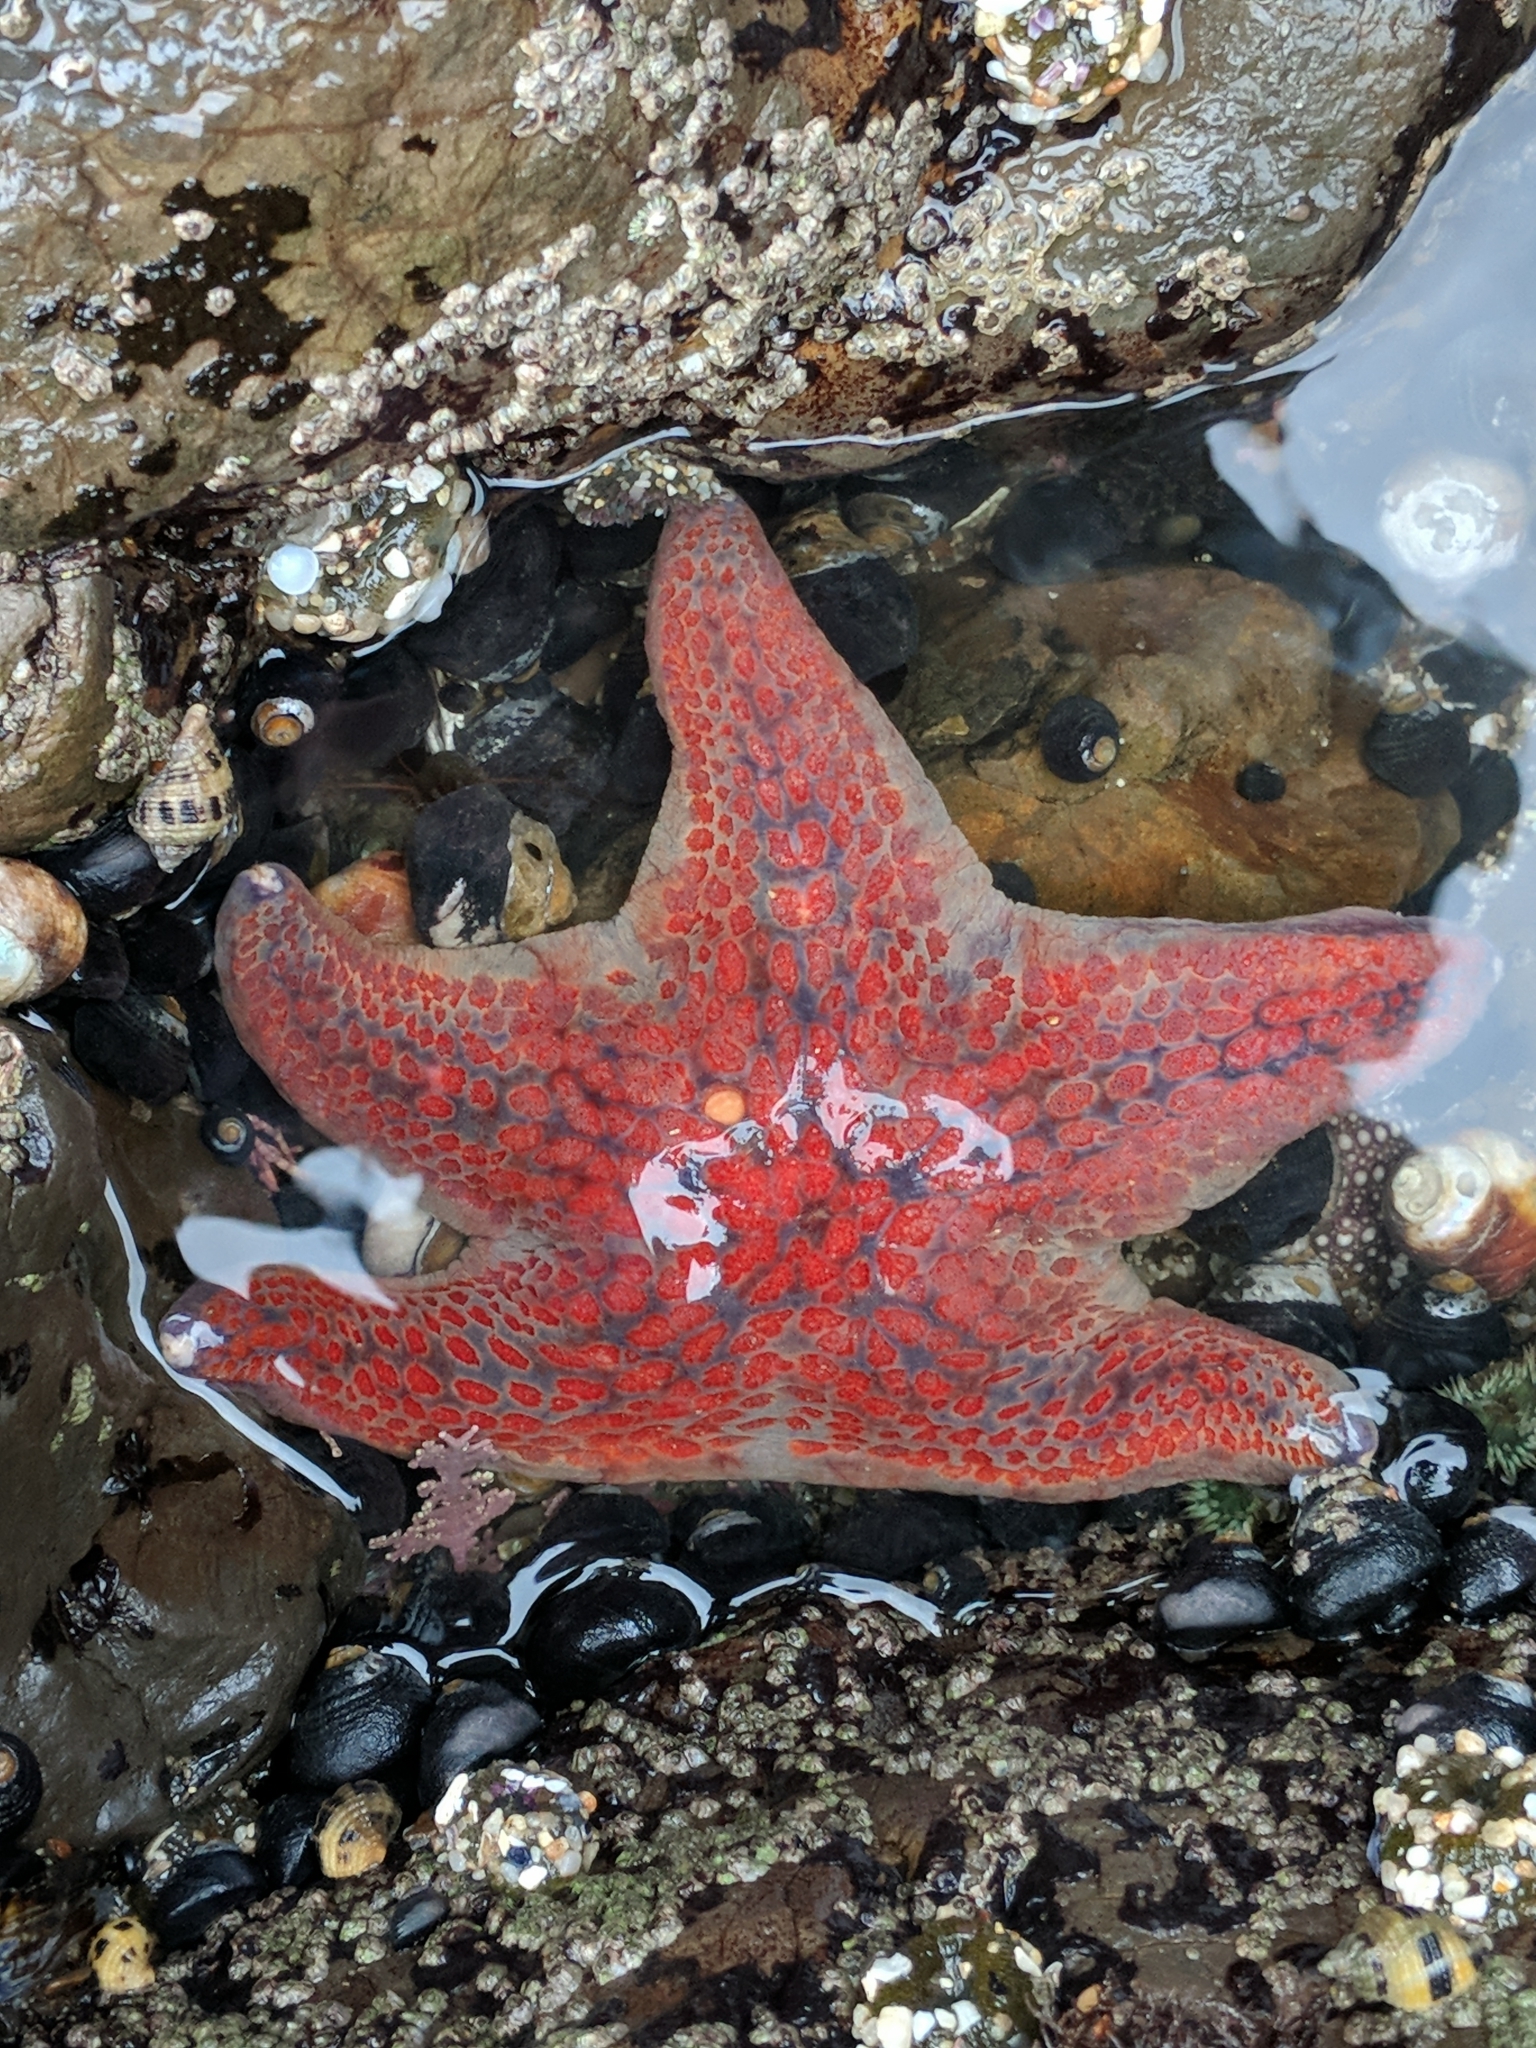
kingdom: Animalia
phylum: Echinodermata
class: Asteroidea
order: Valvatida
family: Asteropseidae
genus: Dermasterias
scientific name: Dermasterias imbricata
